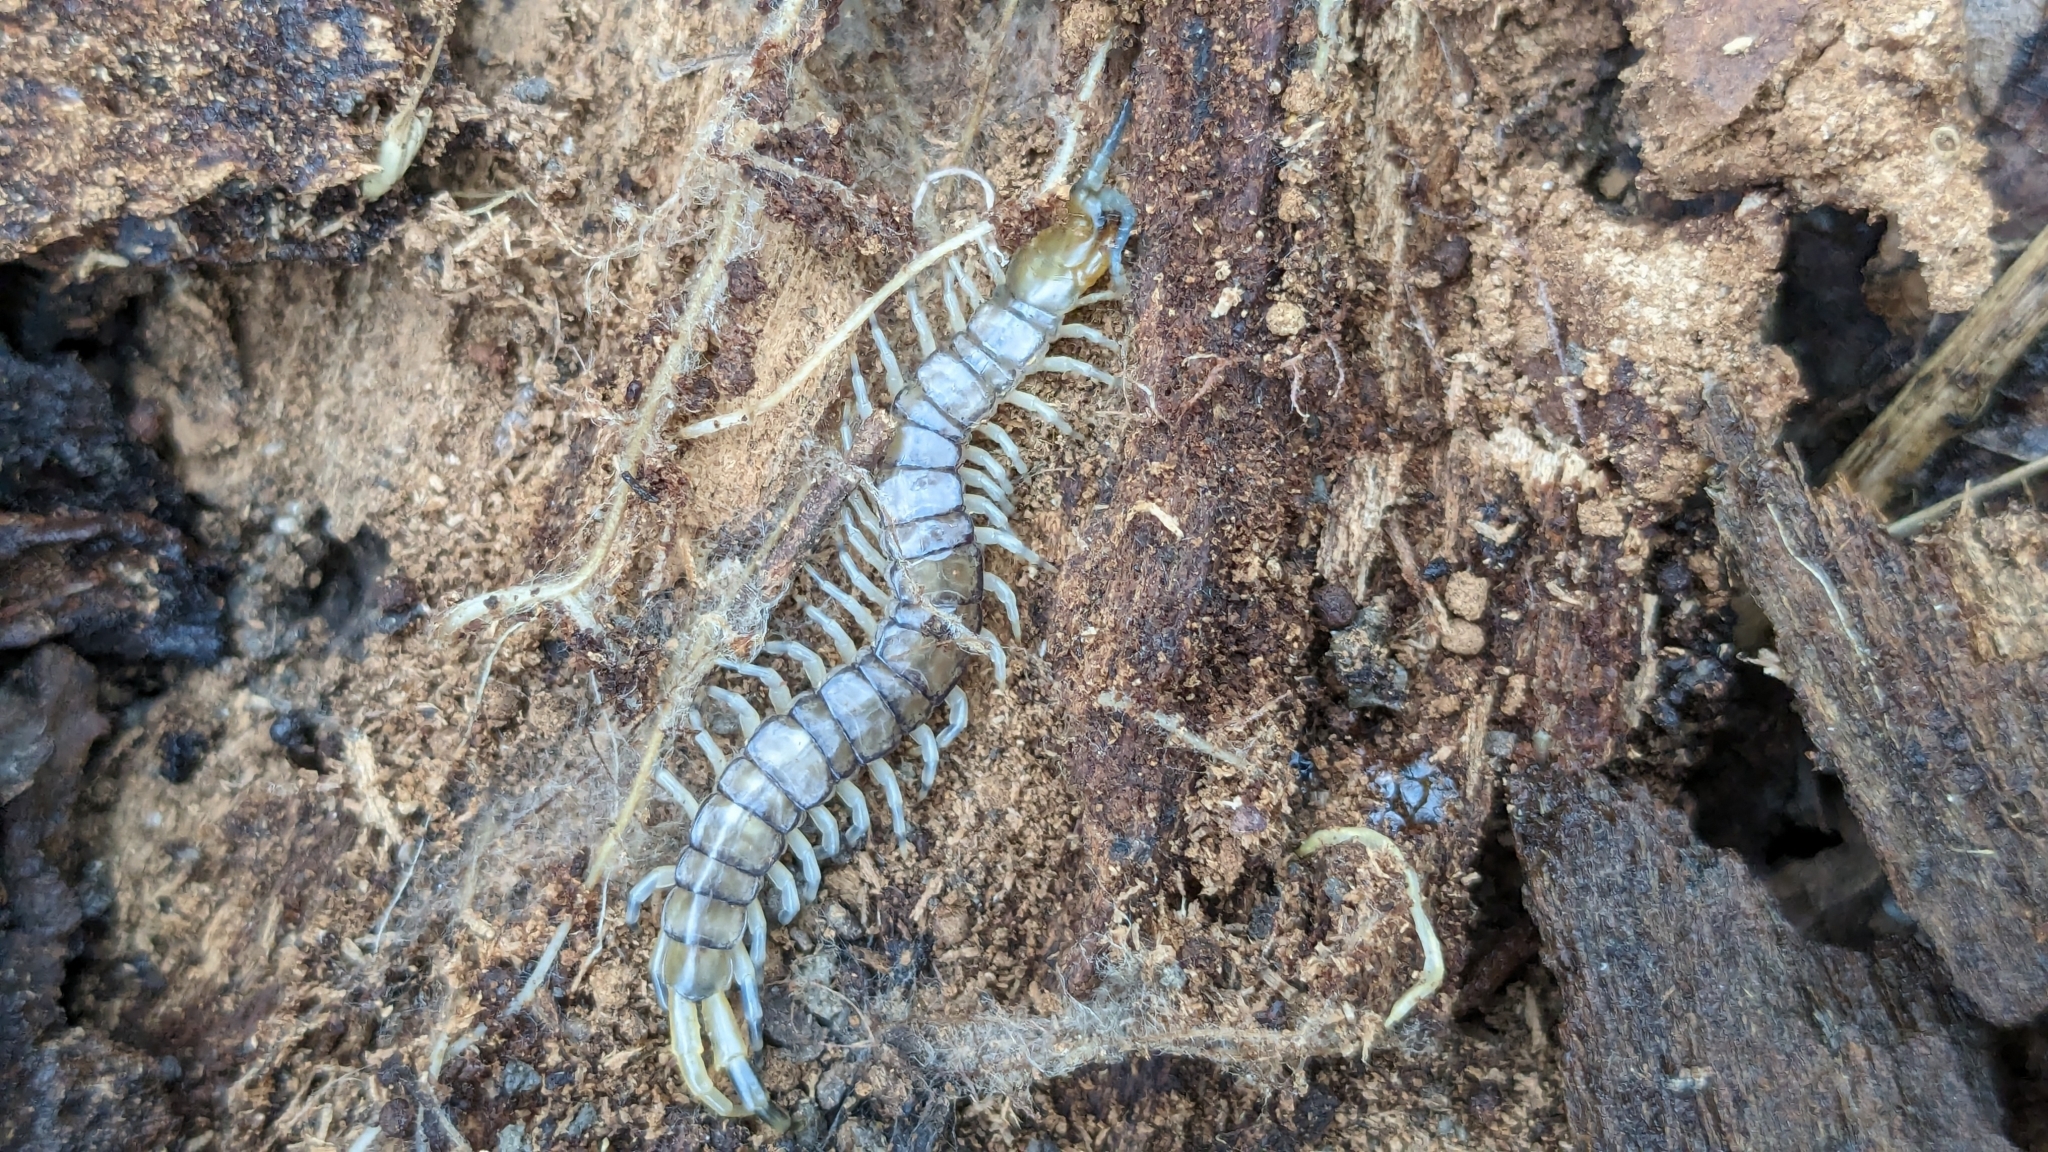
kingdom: Animalia
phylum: Arthropoda
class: Chilopoda
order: Scolopendromorpha
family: Scolopendridae
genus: Hemiscolopendra
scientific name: Hemiscolopendra marginata
